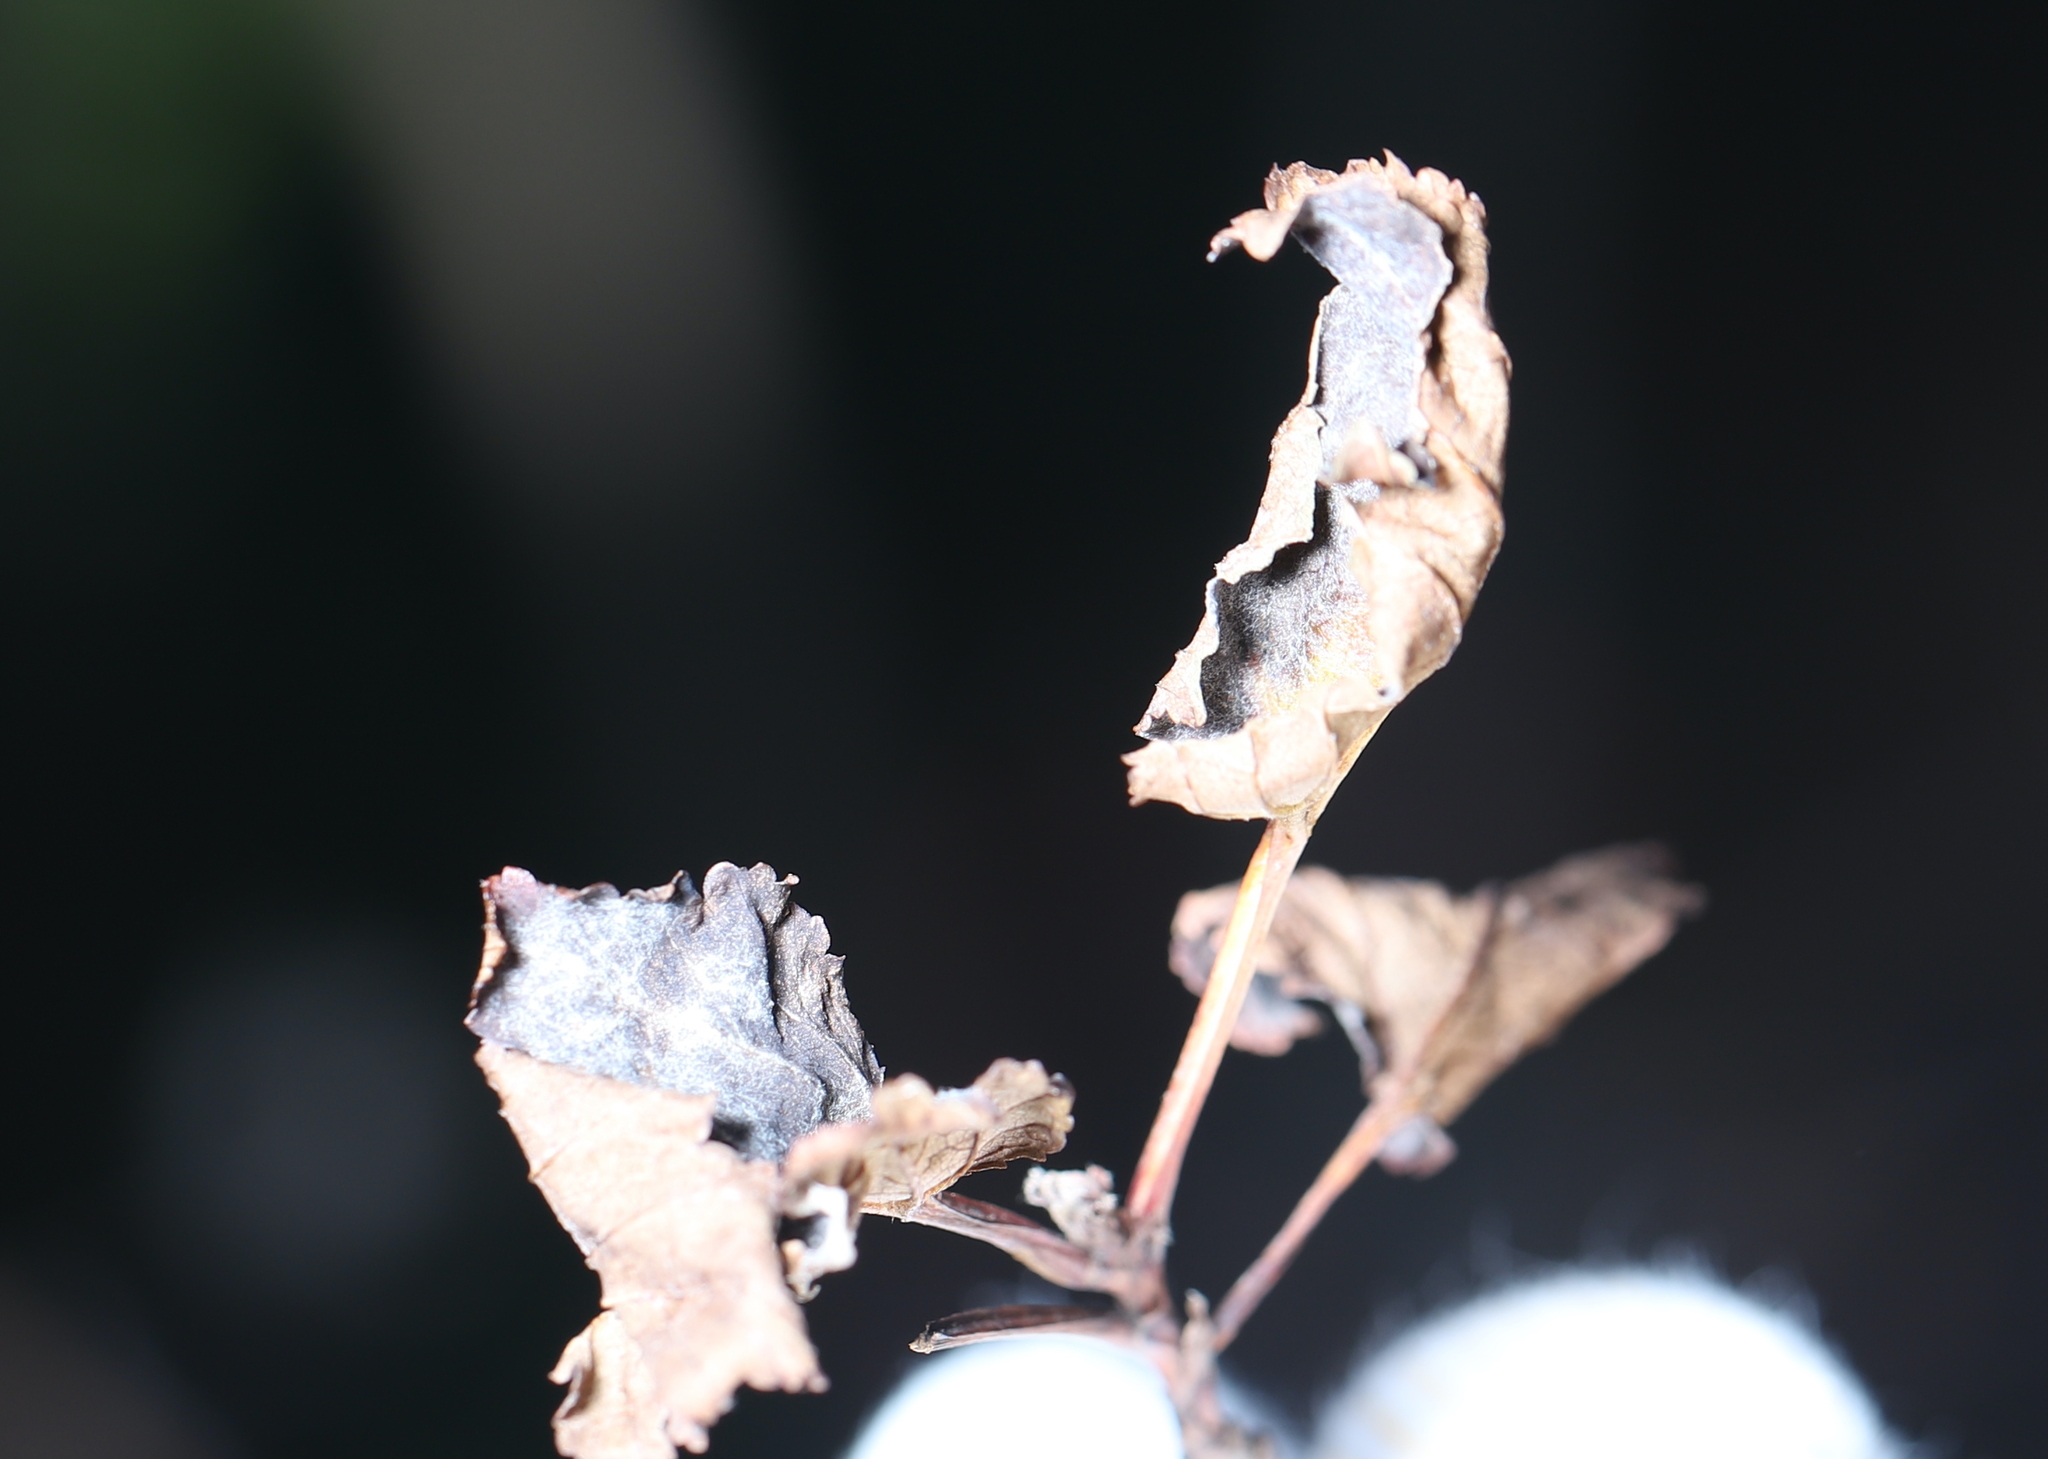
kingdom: Fungi
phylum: Ascomycota
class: Leotiomycetes
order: Helotiales
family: Erysiphaceae
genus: Podosphaera
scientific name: Podosphaera physocarpi
